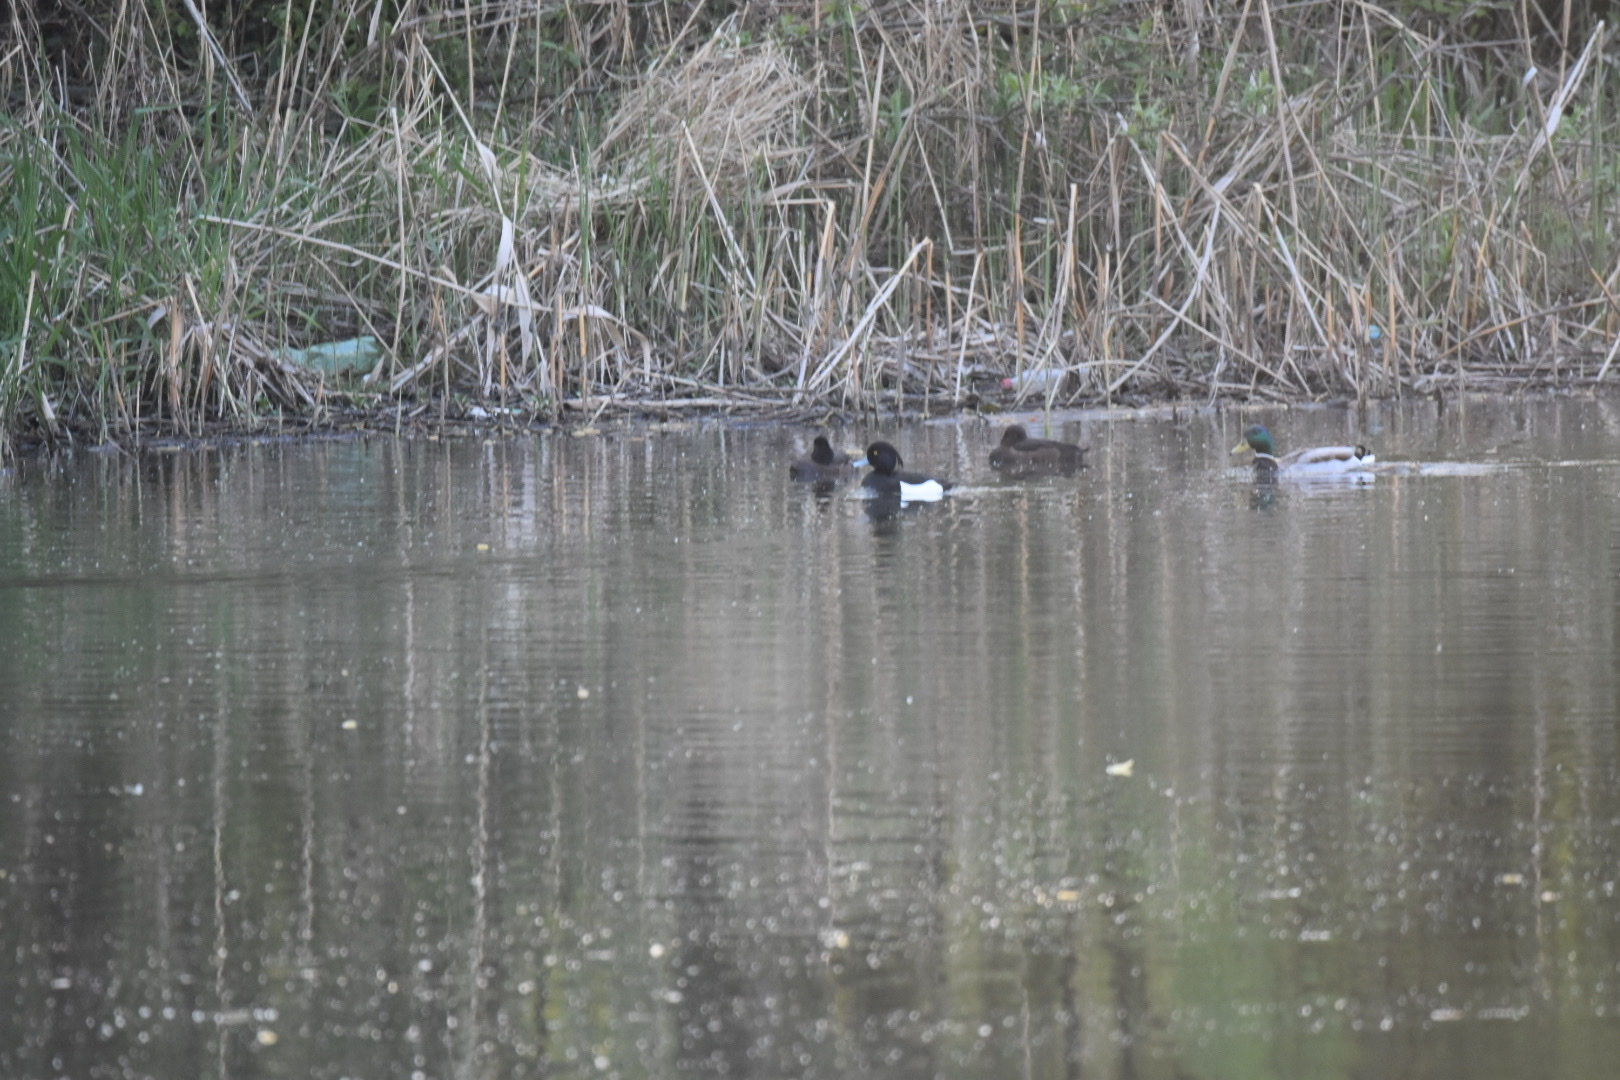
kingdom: Animalia
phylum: Chordata
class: Aves
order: Anseriformes
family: Anatidae
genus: Aythya
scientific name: Aythya fuligula
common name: Tufted duck
